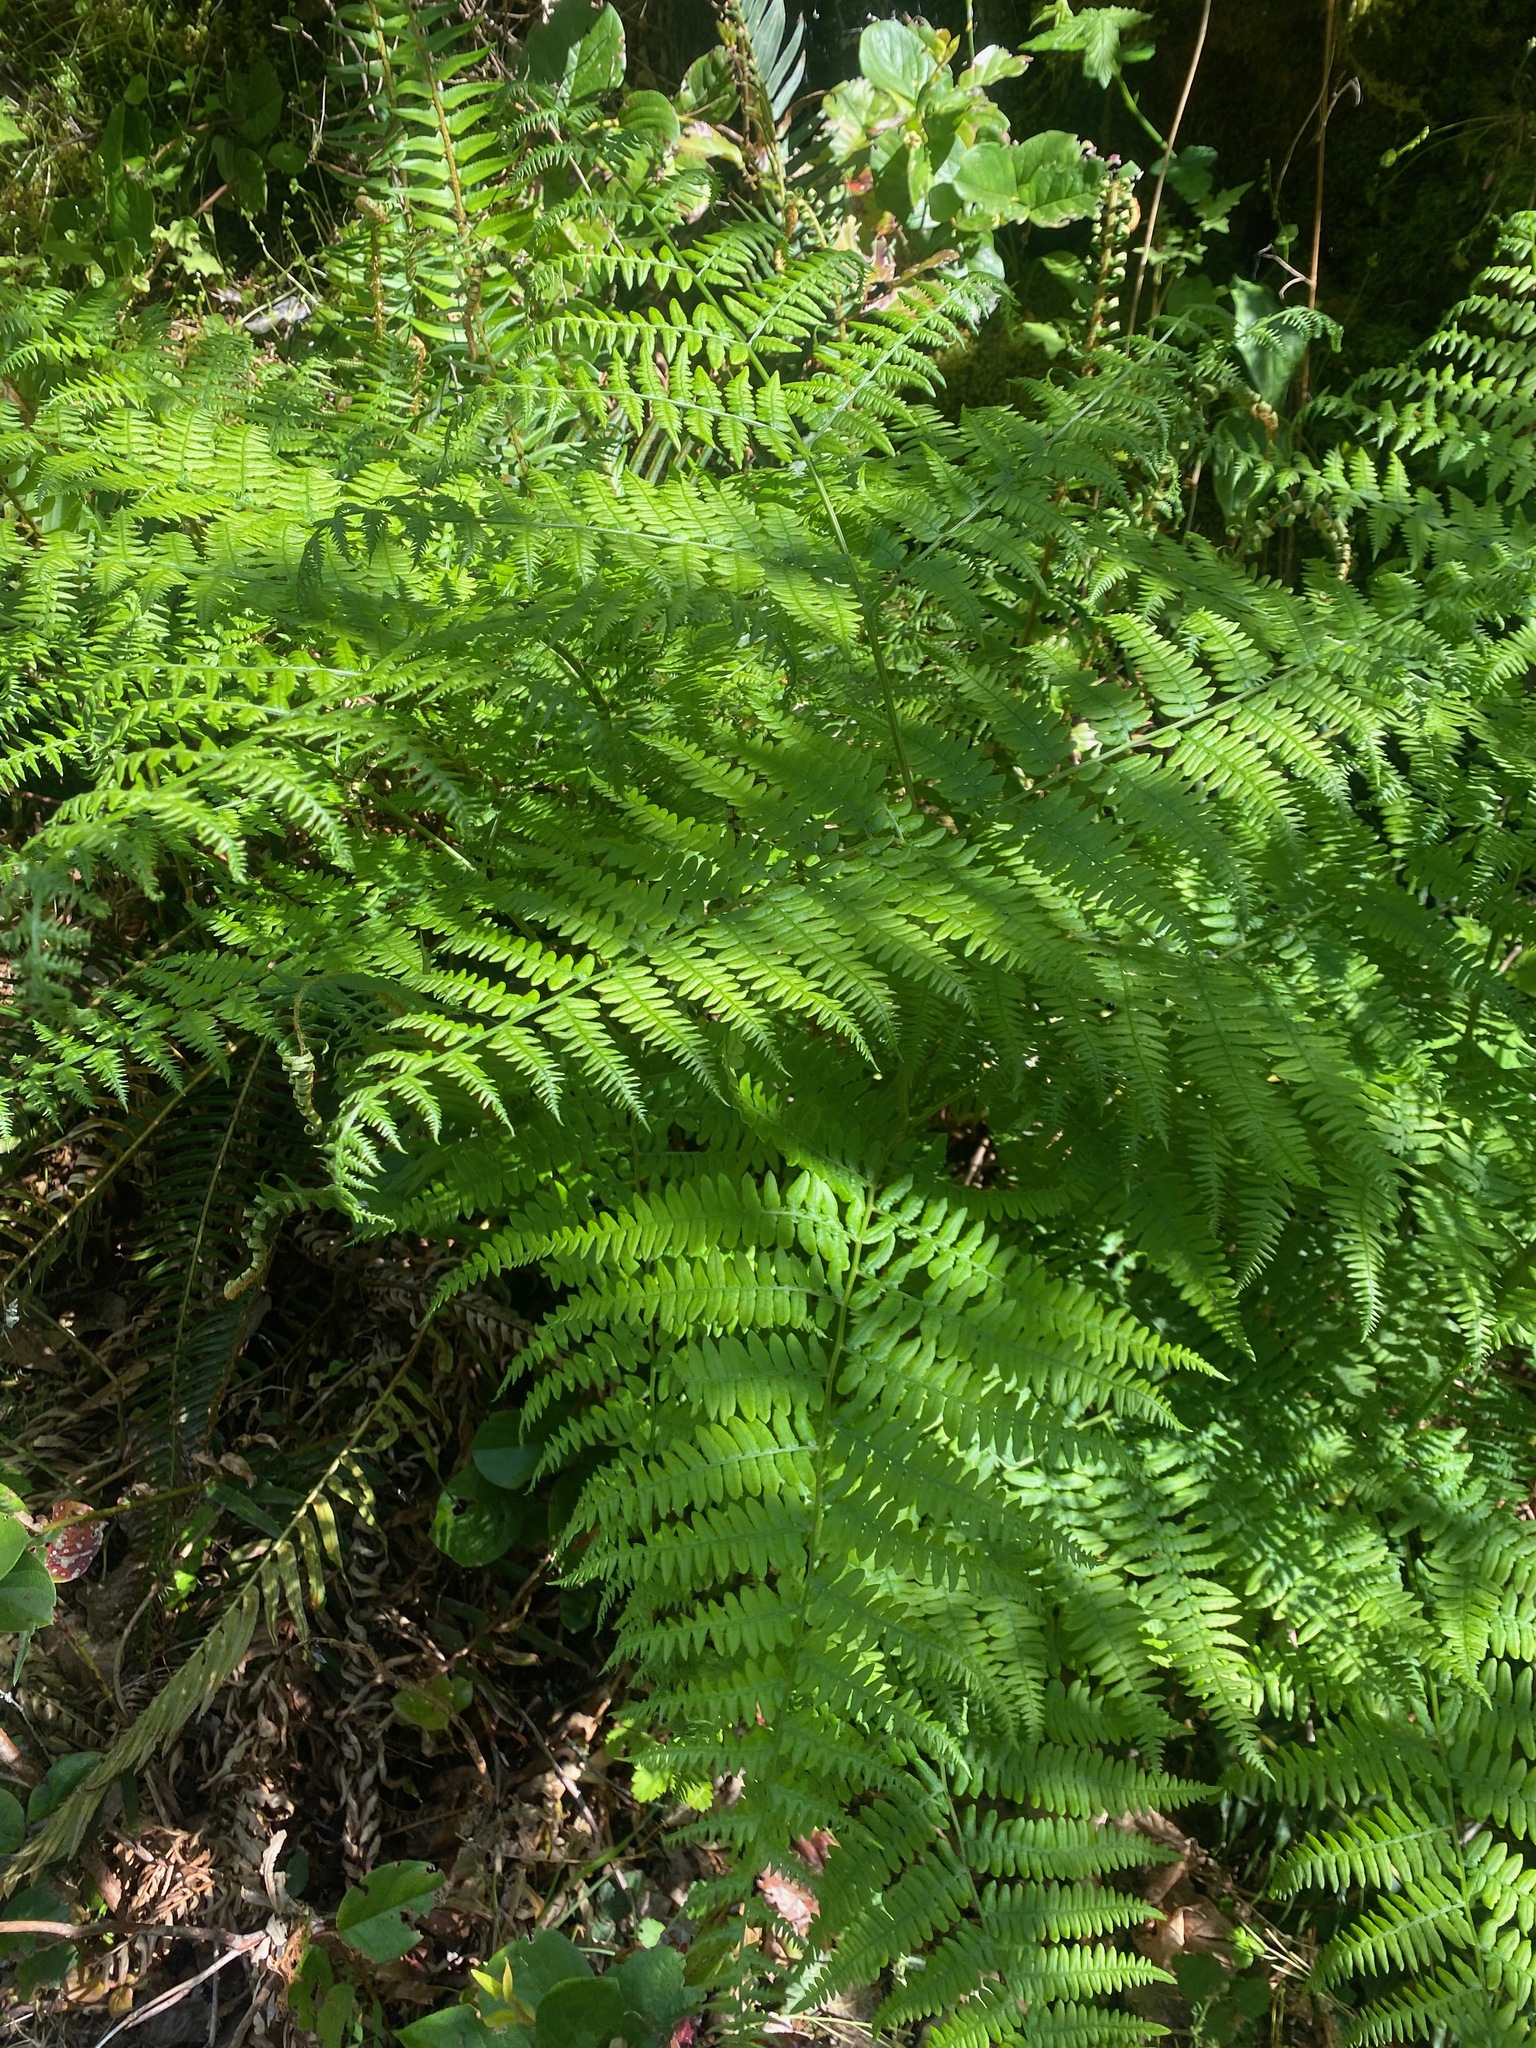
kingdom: Plantae
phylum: Tracheophyta
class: Polypodiopsida
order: Polypodiales
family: Dennstaedtiaceae
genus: Pteridium
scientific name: Pteridium aquilinum
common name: Bracken
